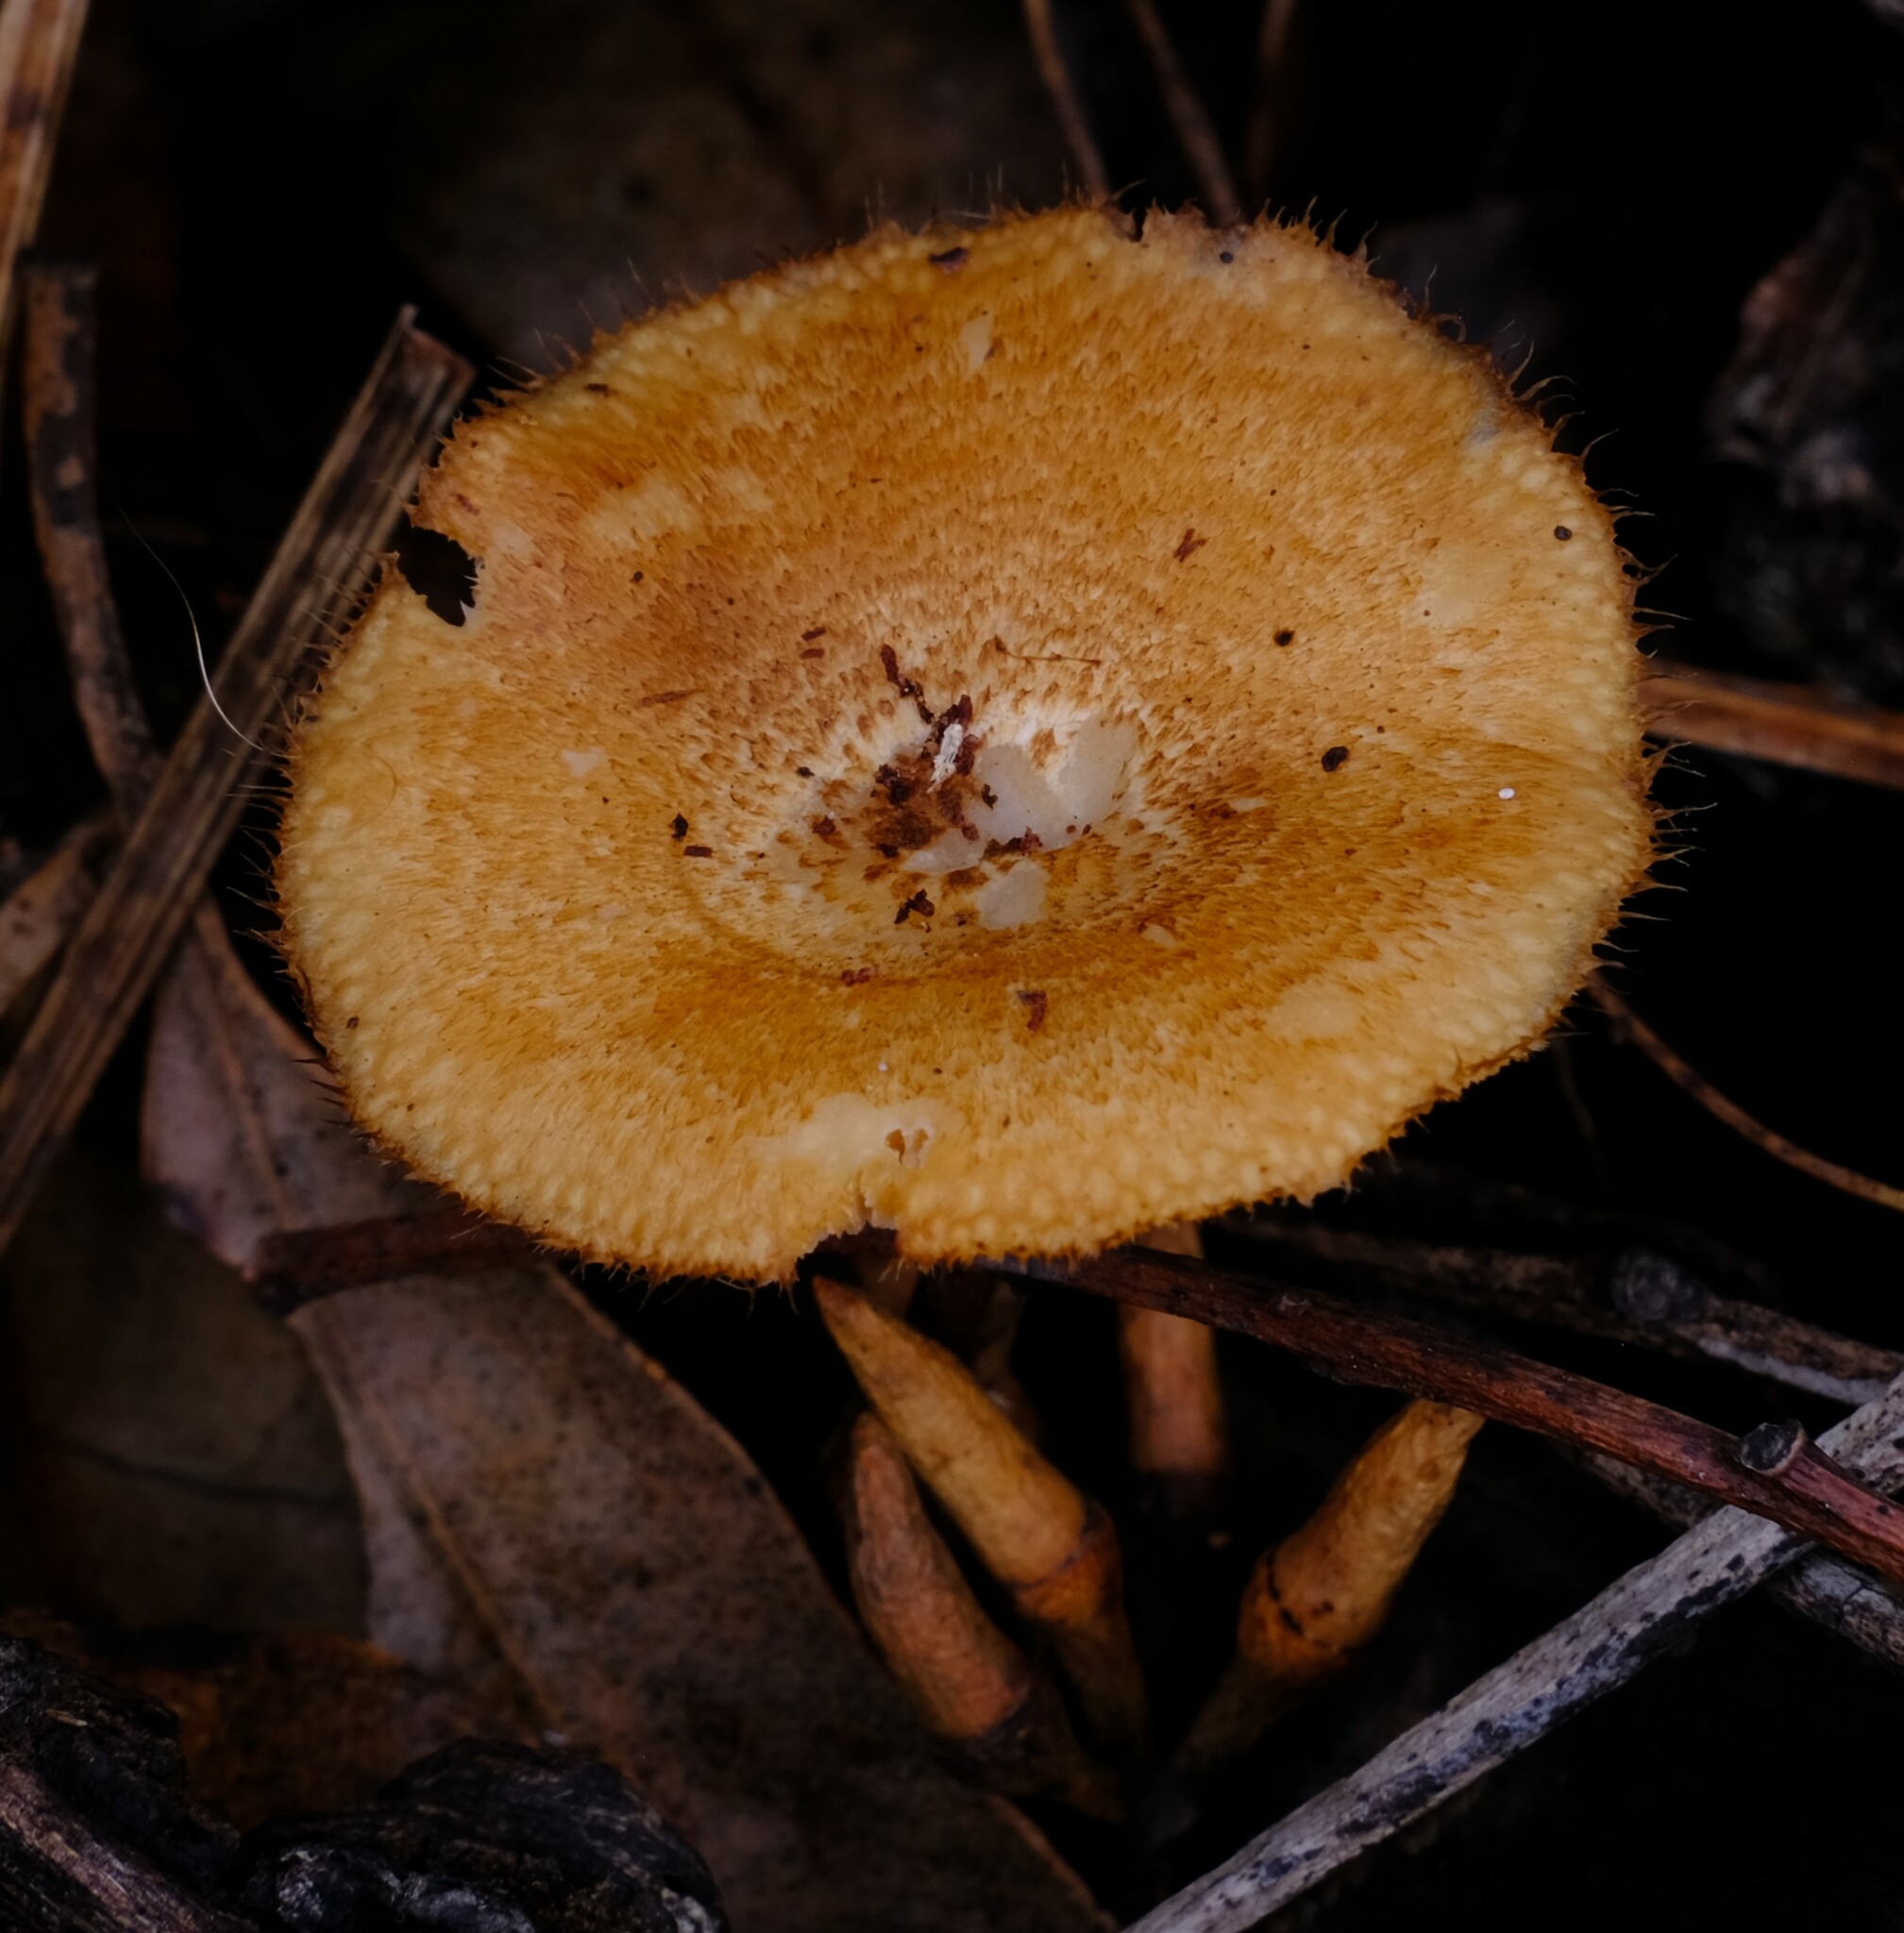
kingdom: Fungi
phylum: Basidiomycota
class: Agaricomycetes
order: Polyporales
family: Polyporaceae
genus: Lentinus
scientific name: Lentinus arcularius
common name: Spring polypore
